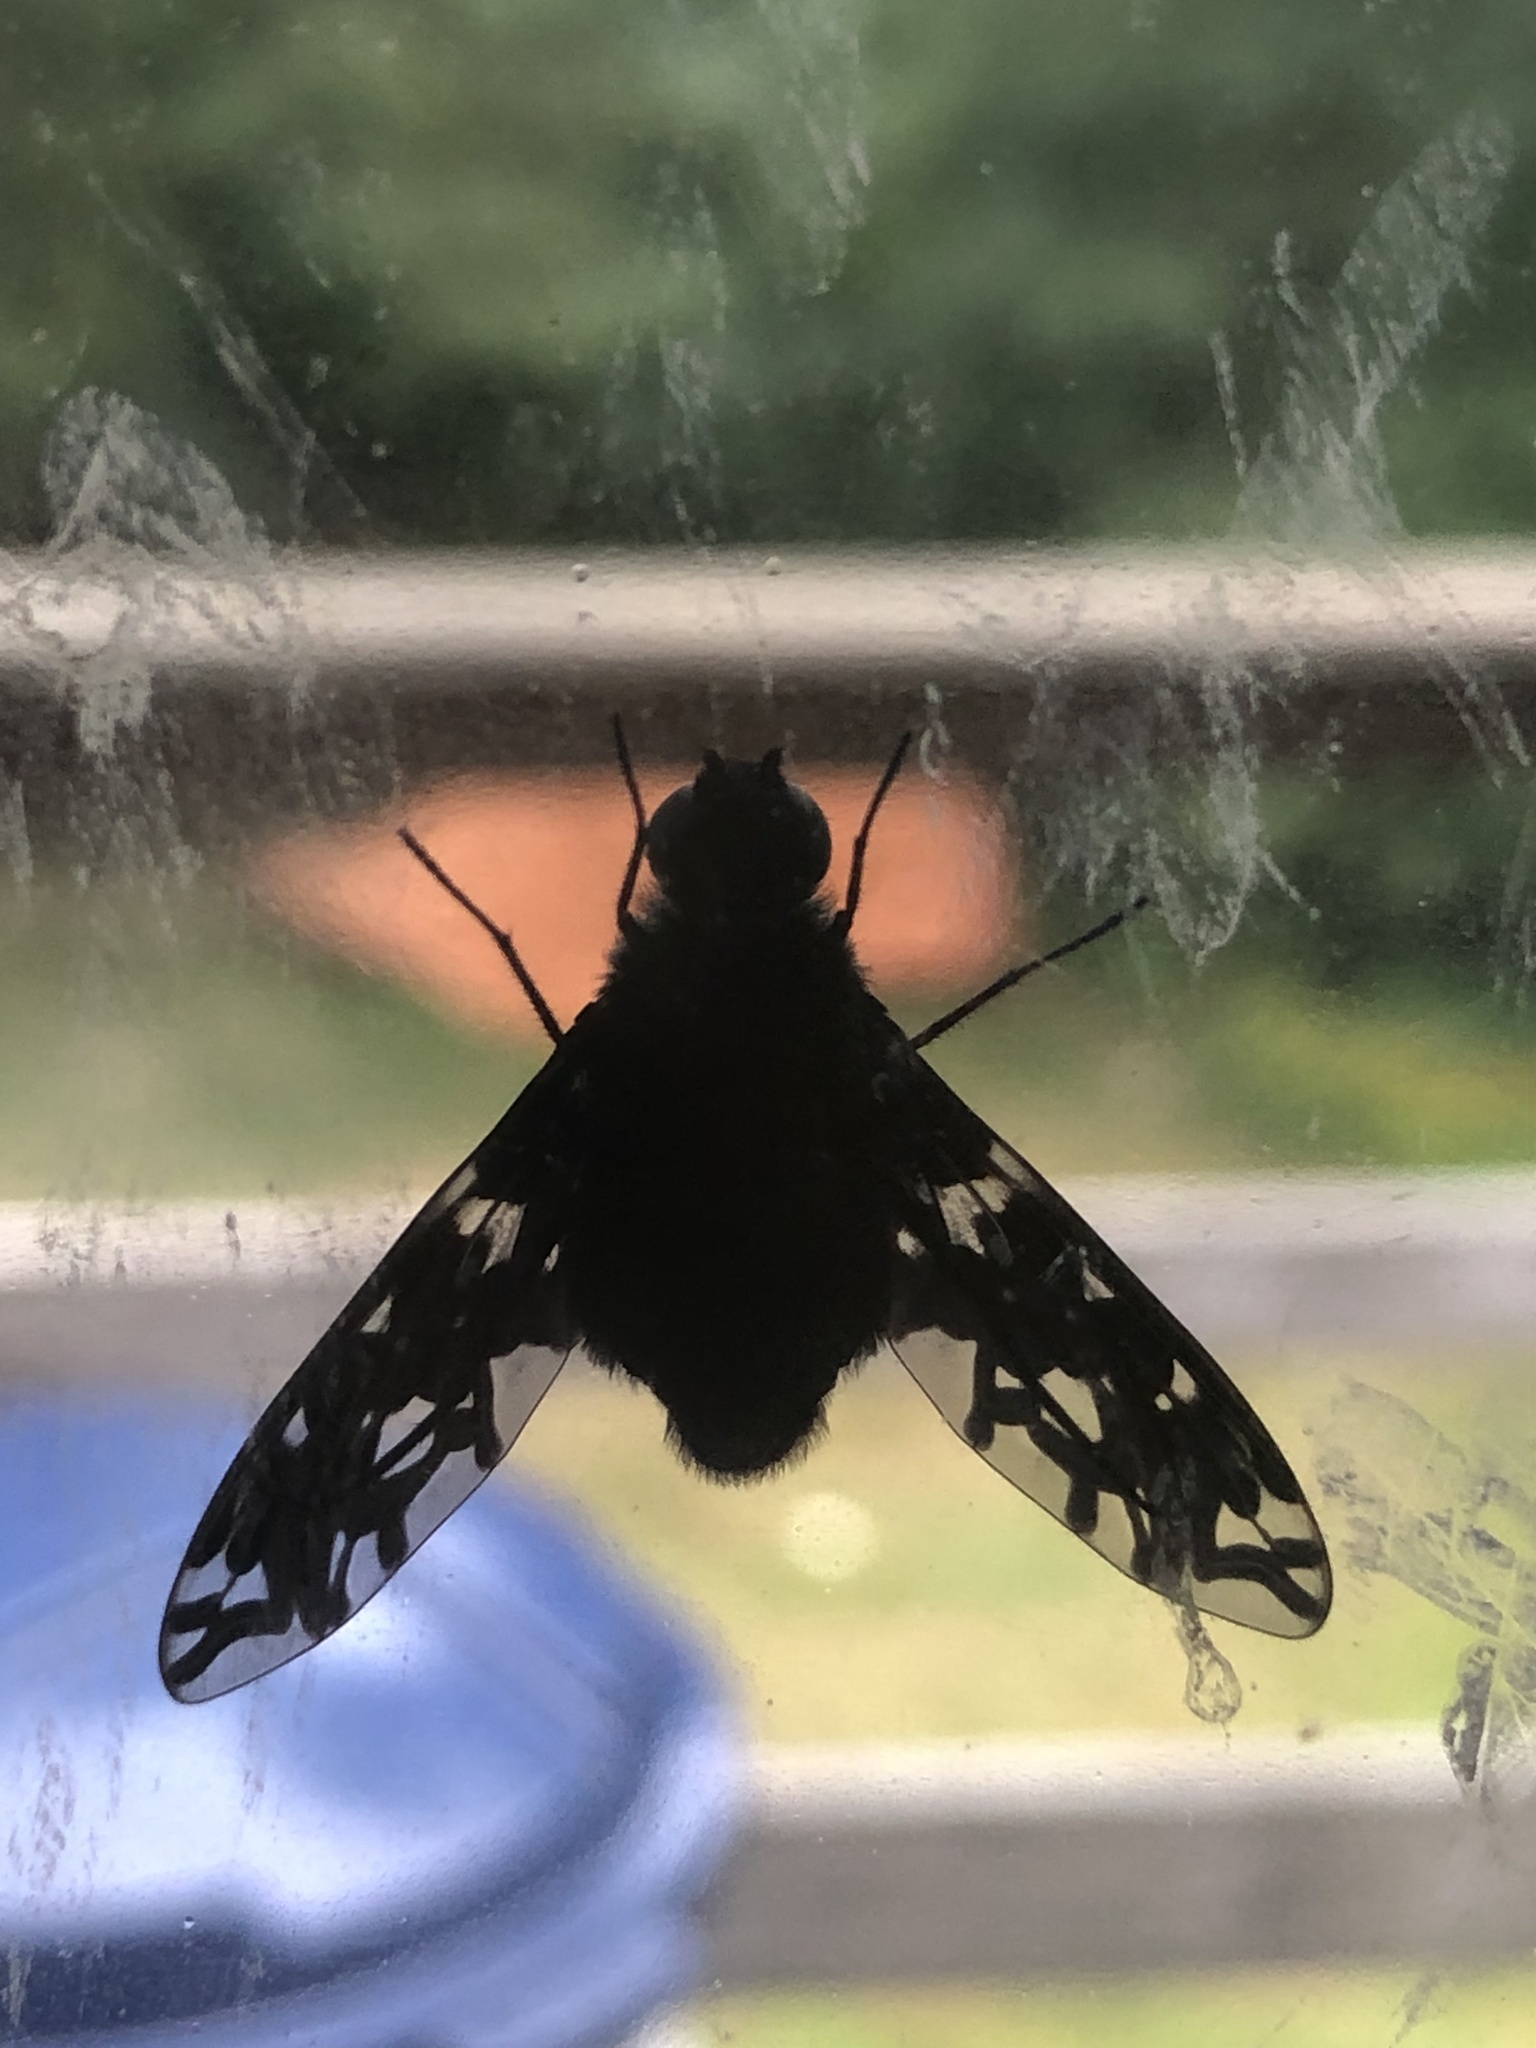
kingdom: Animalia
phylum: Arthropoda
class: Insecta
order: Diptera
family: Bombyliidae
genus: Xenox
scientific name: Xenox tigrinus
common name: Tiger bee fly
